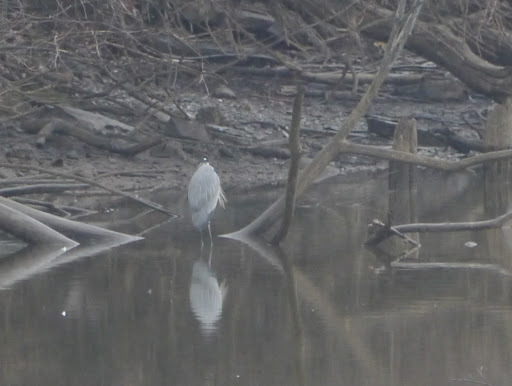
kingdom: Animalia
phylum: Chordata
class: Aves
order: Pelecaniformes
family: Ardeidae
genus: Ardea
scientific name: Ardea herodias
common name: Great blue heron
